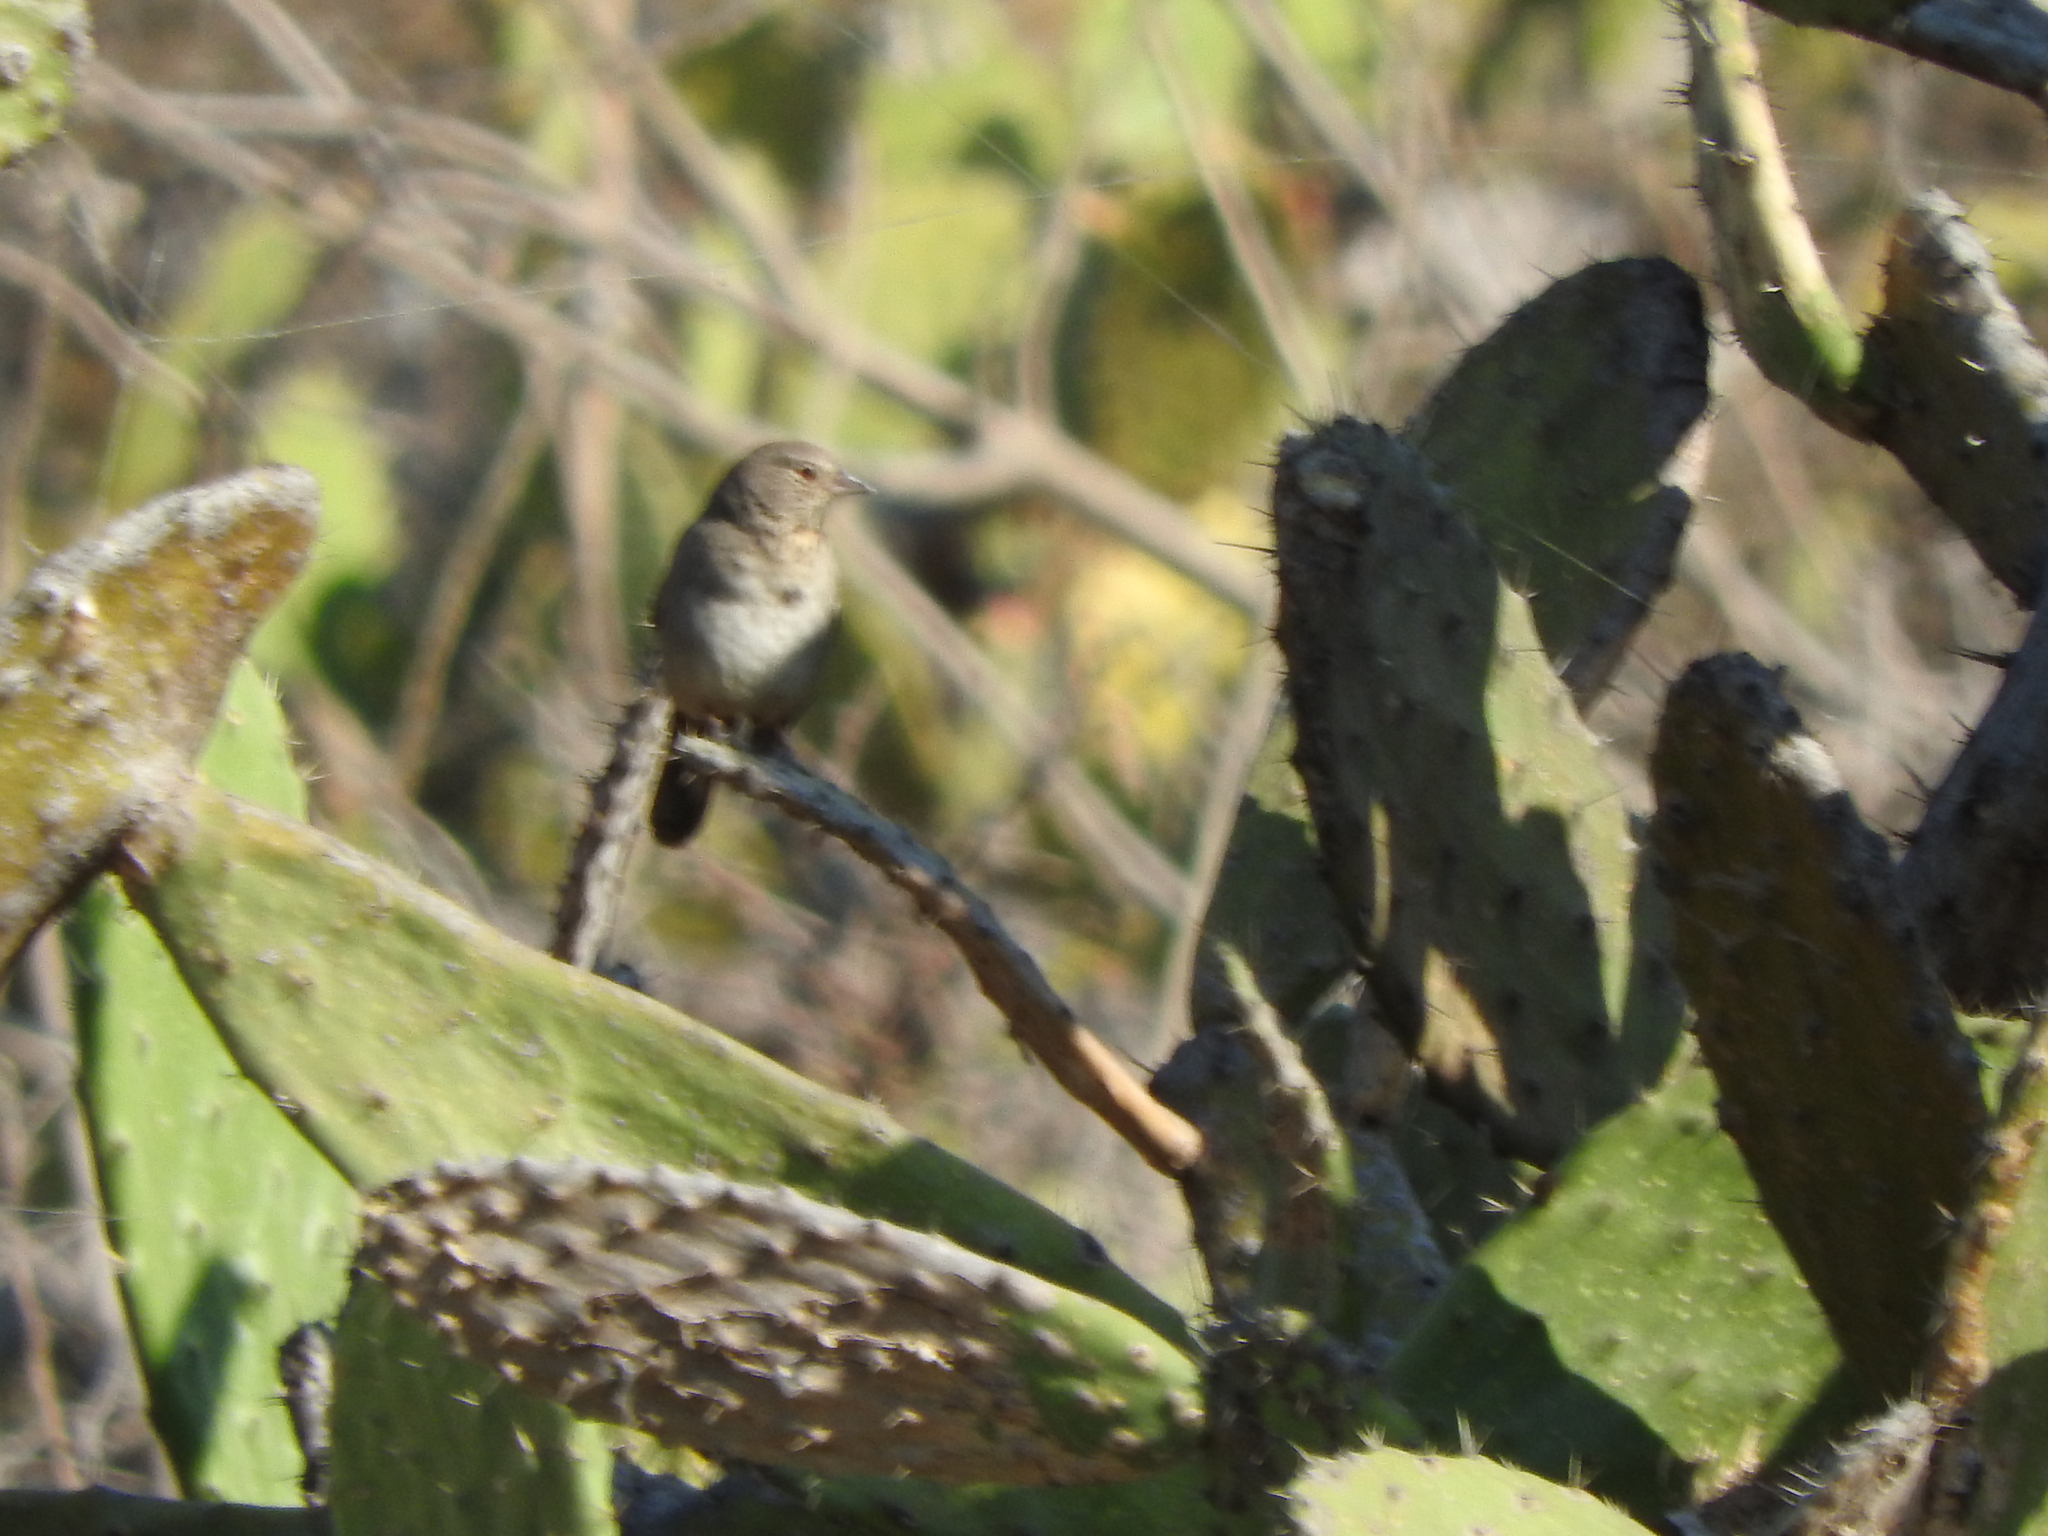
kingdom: Animalia
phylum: Chordata
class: Aves
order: Passeriformes
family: Passerellidae
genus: Melozone
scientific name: Melozone fusca
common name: Canyon towhee
